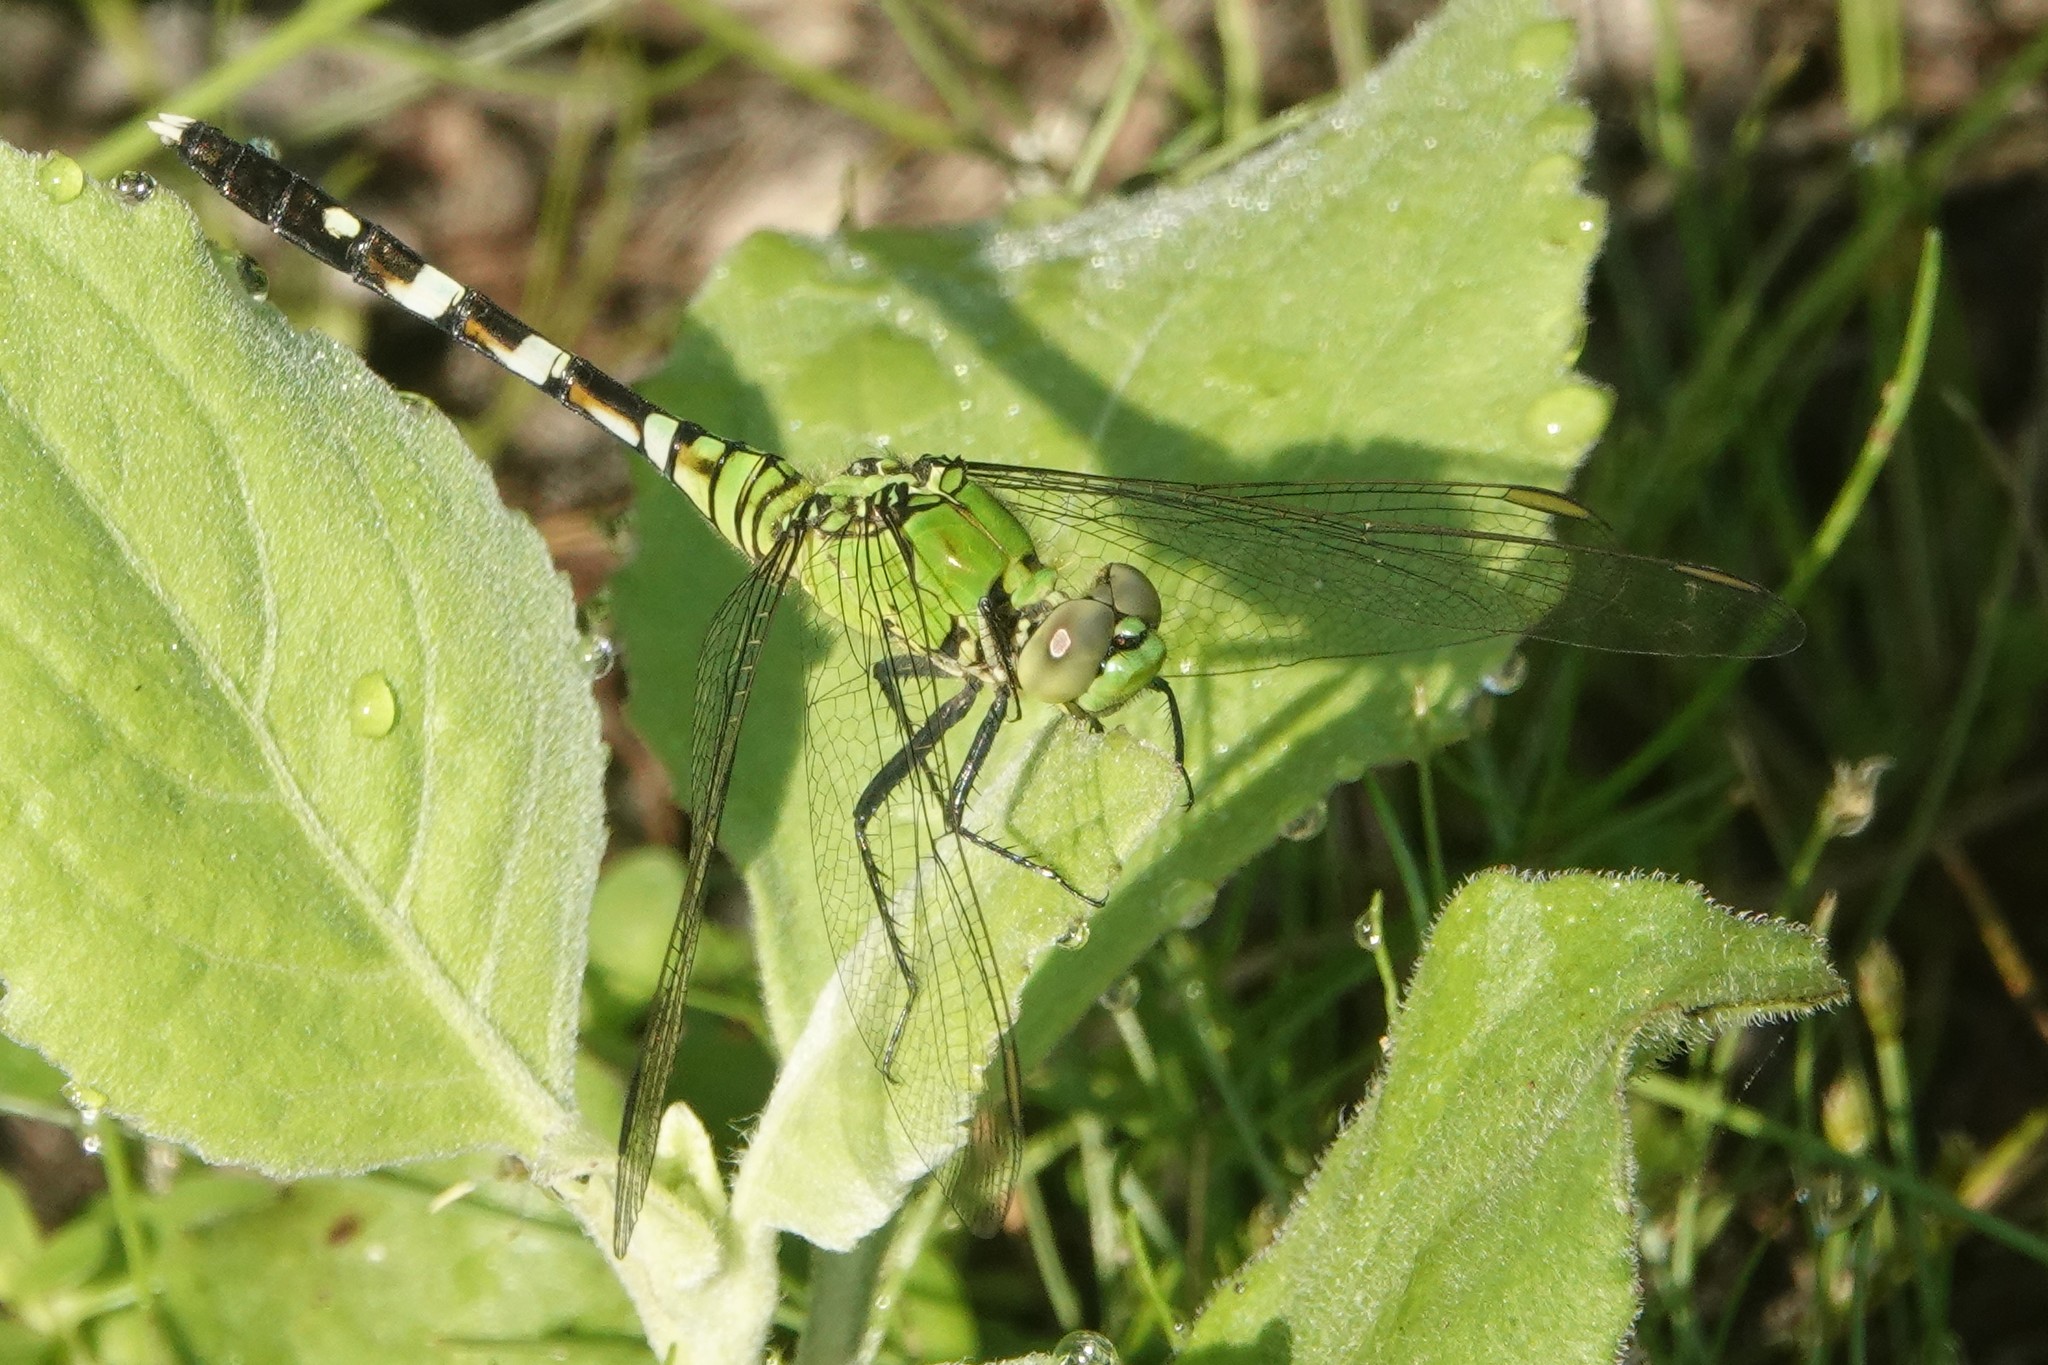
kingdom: Animalia
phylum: Arthropoda
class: Insecta
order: Odonata
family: Libellulidae
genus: Erythemis
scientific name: Erythemis simplicicollis
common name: Eastern pondhawk
